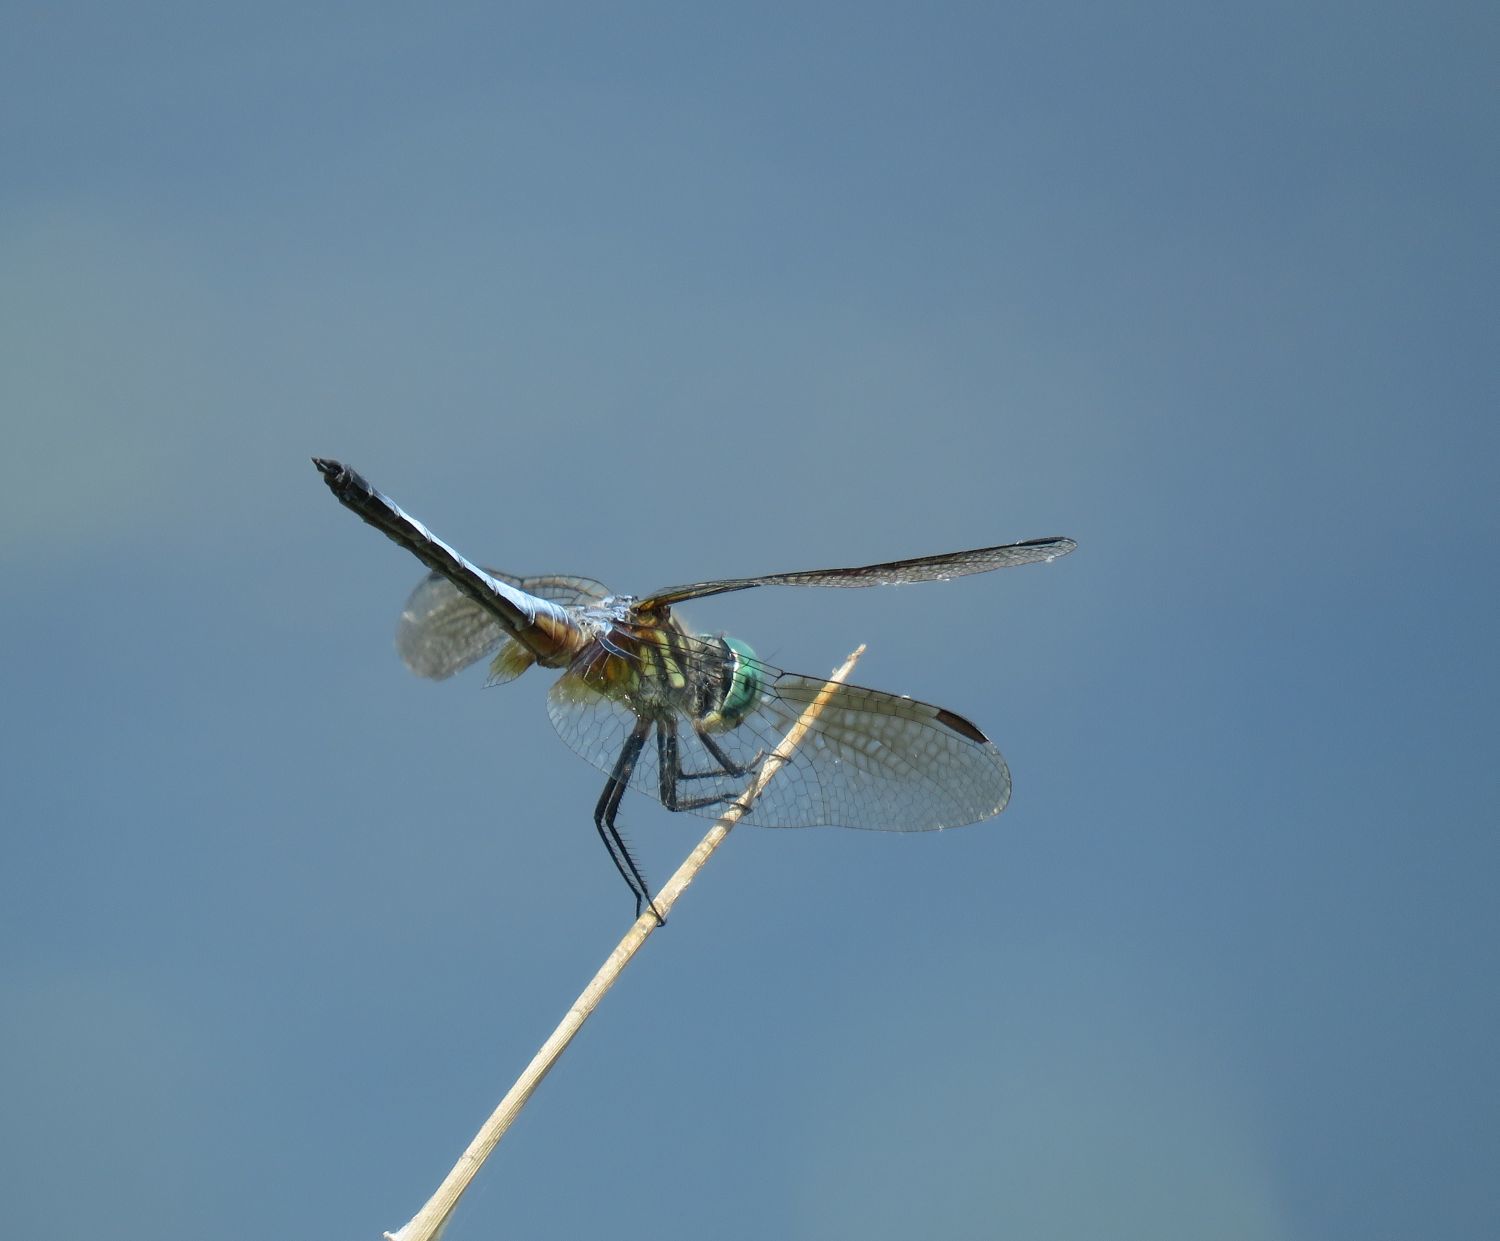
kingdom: Animalia
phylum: Arthropoda
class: Insecta
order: Odonata
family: Libellulidae
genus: Pachydiplax
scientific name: Pachydiplax longipennis
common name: Blue dasher
